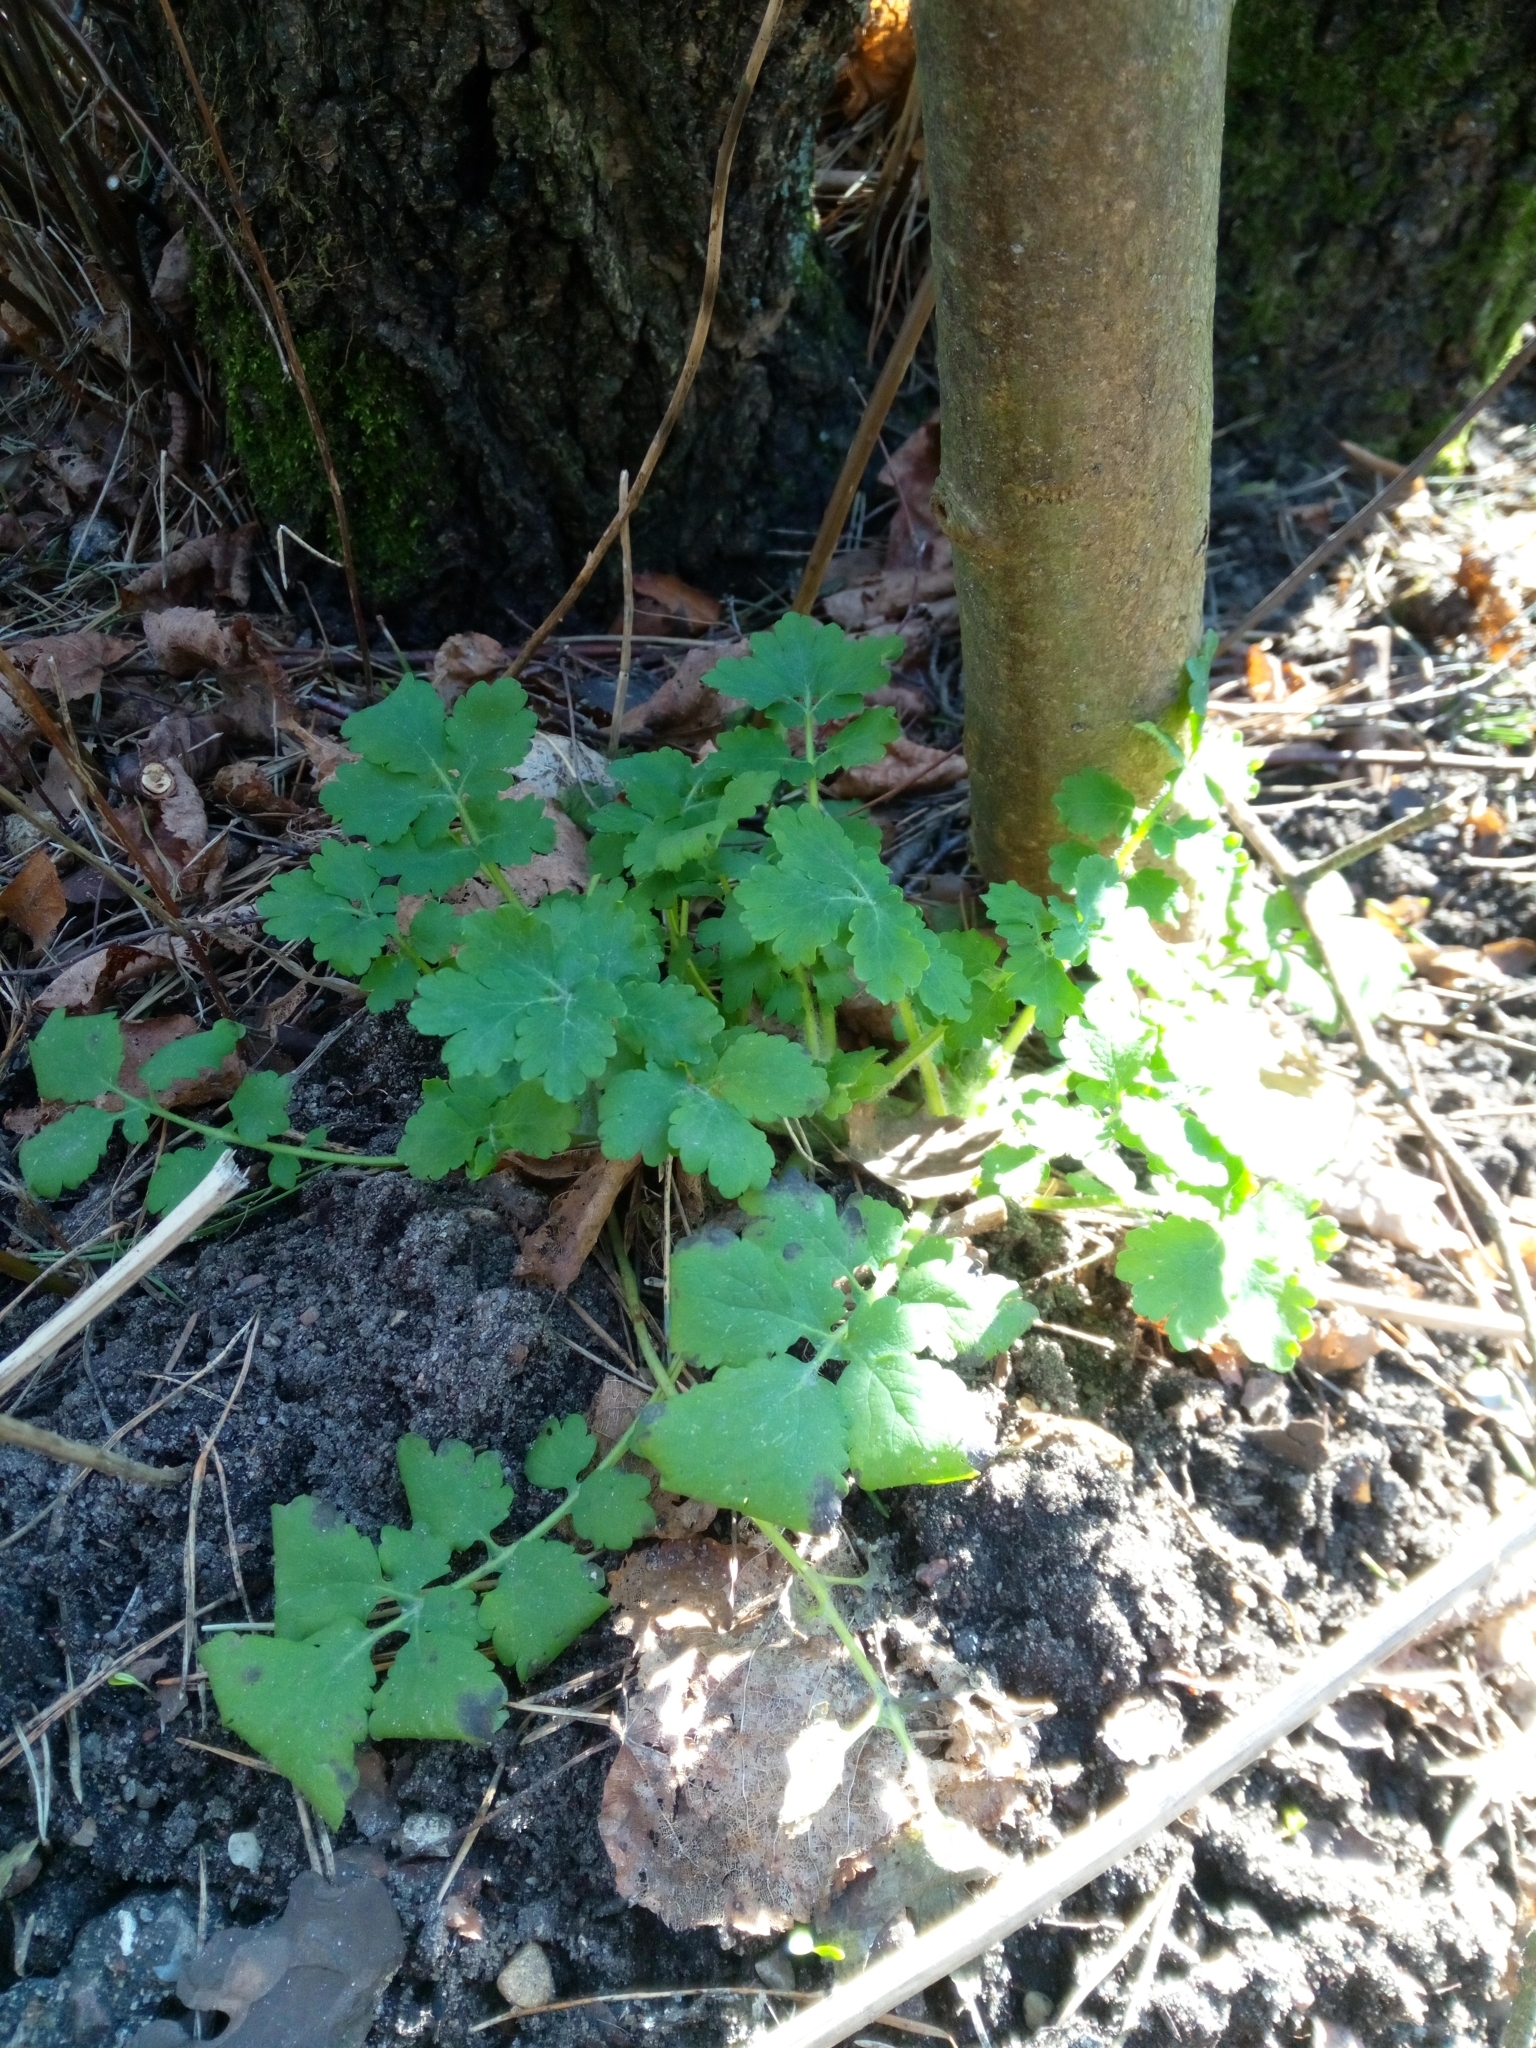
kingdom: Plantae
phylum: Tracheophyta
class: Magnoliopsida
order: Ranunculales
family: Papaveraceae
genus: Chelidonium
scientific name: Chelidonium majus
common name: Greater celandine
